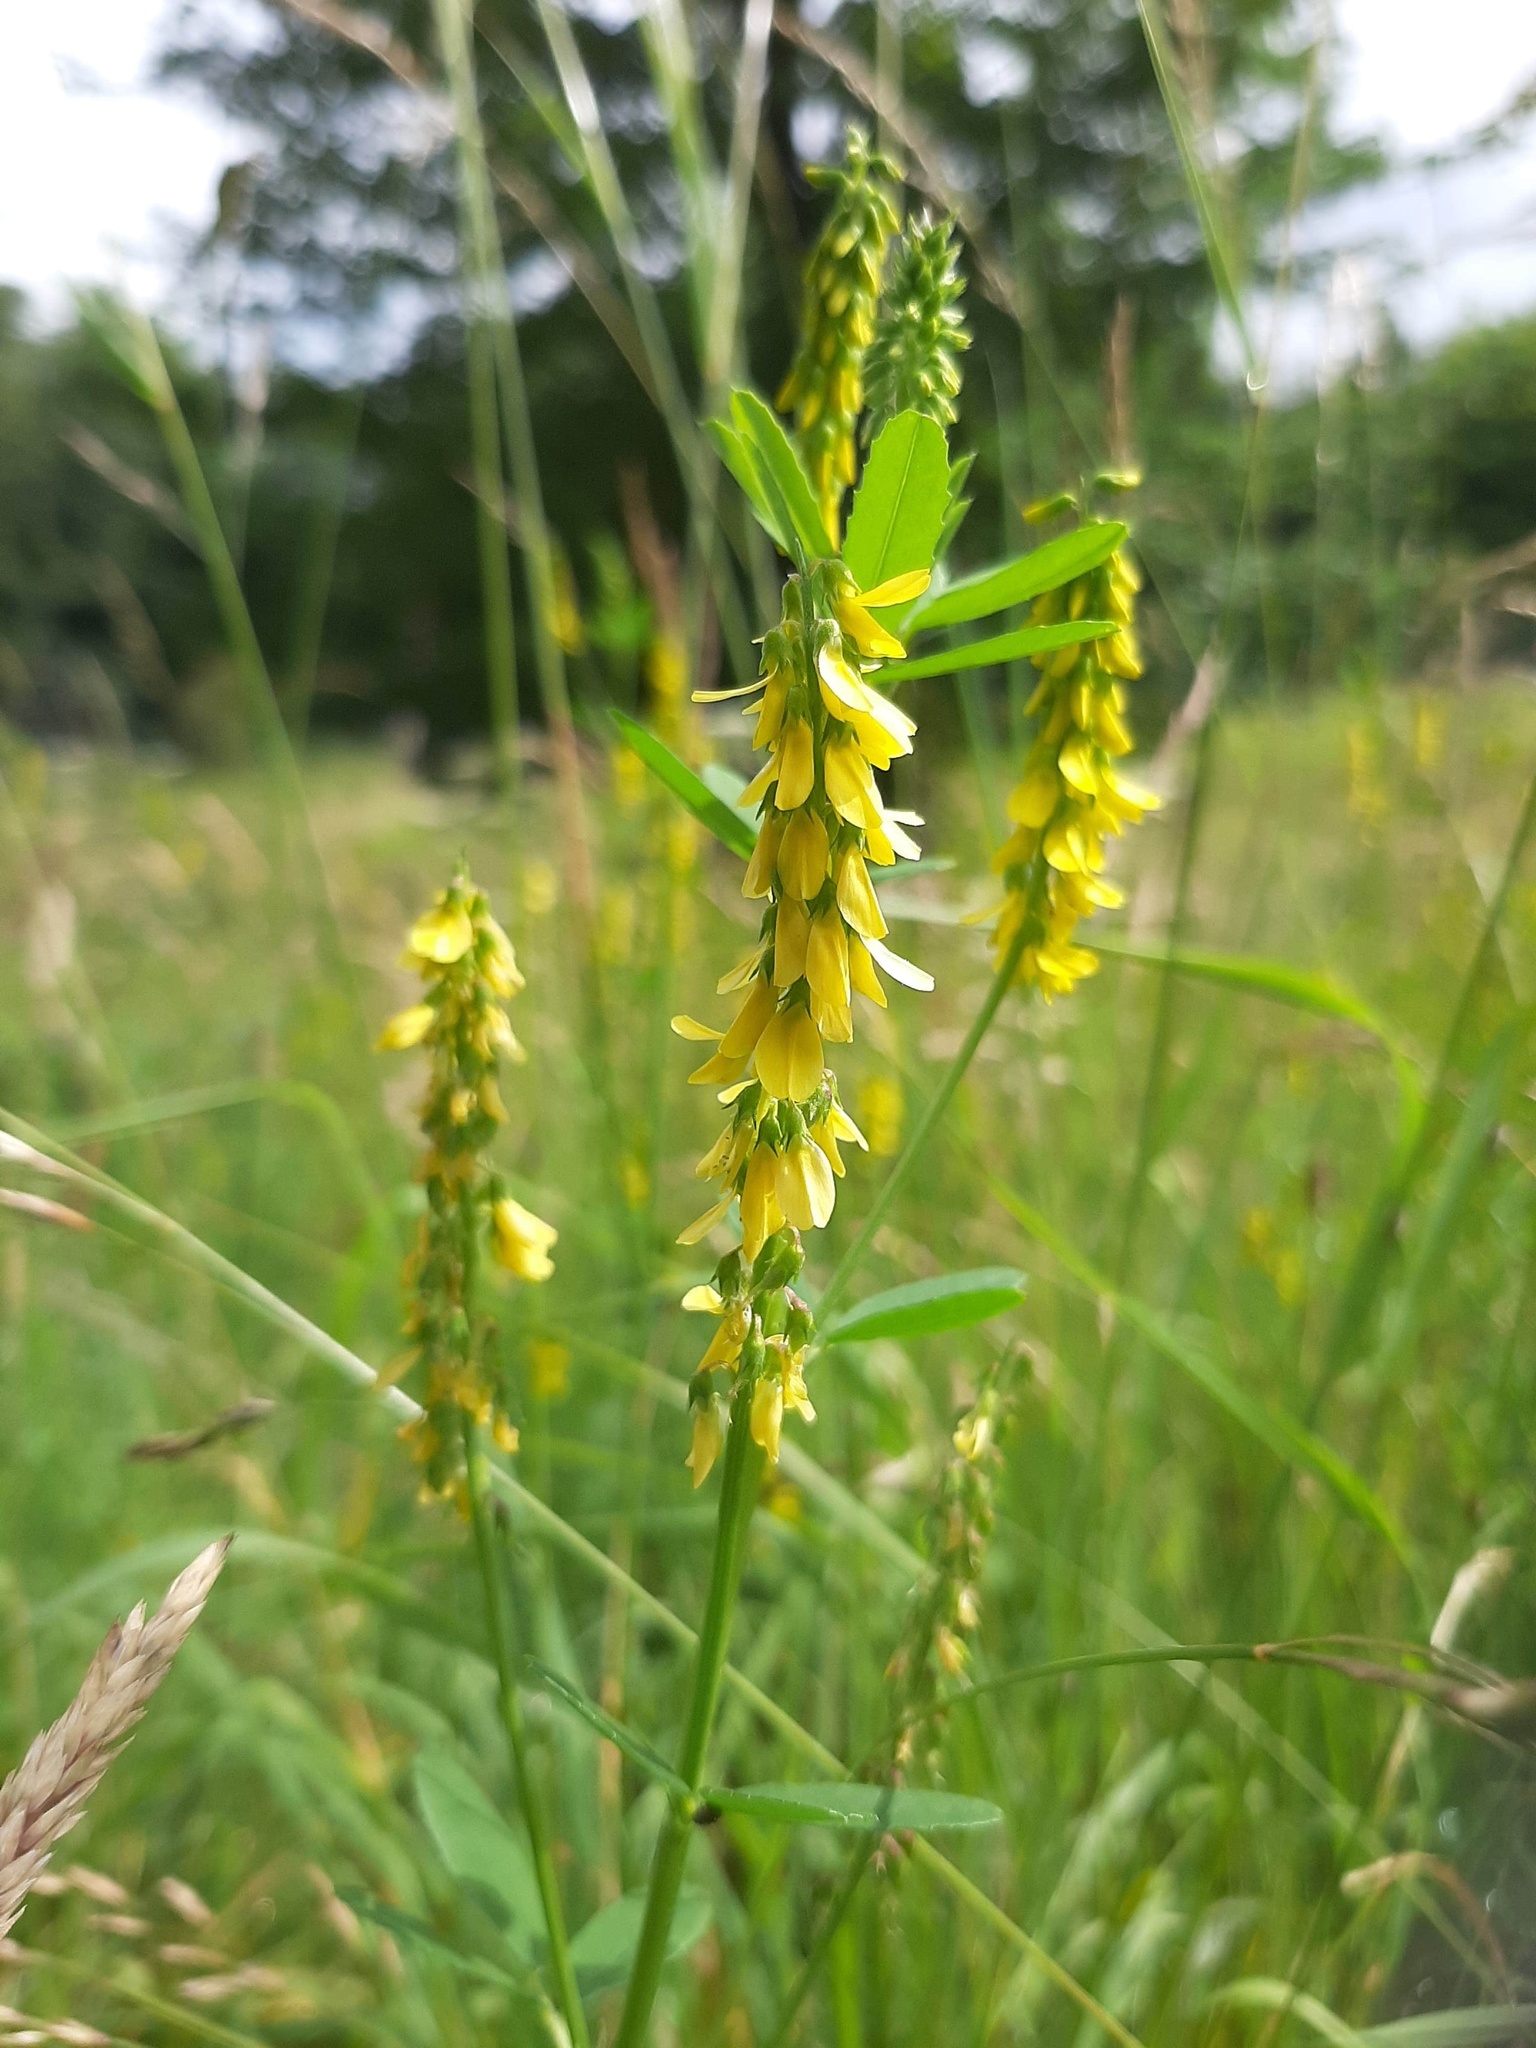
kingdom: Plantae
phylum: Tracheophyta
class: Magnoliopsida
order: Fabales
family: Fabaceae
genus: Melilotus
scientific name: Melilotus officinalis
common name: Sweetclover
